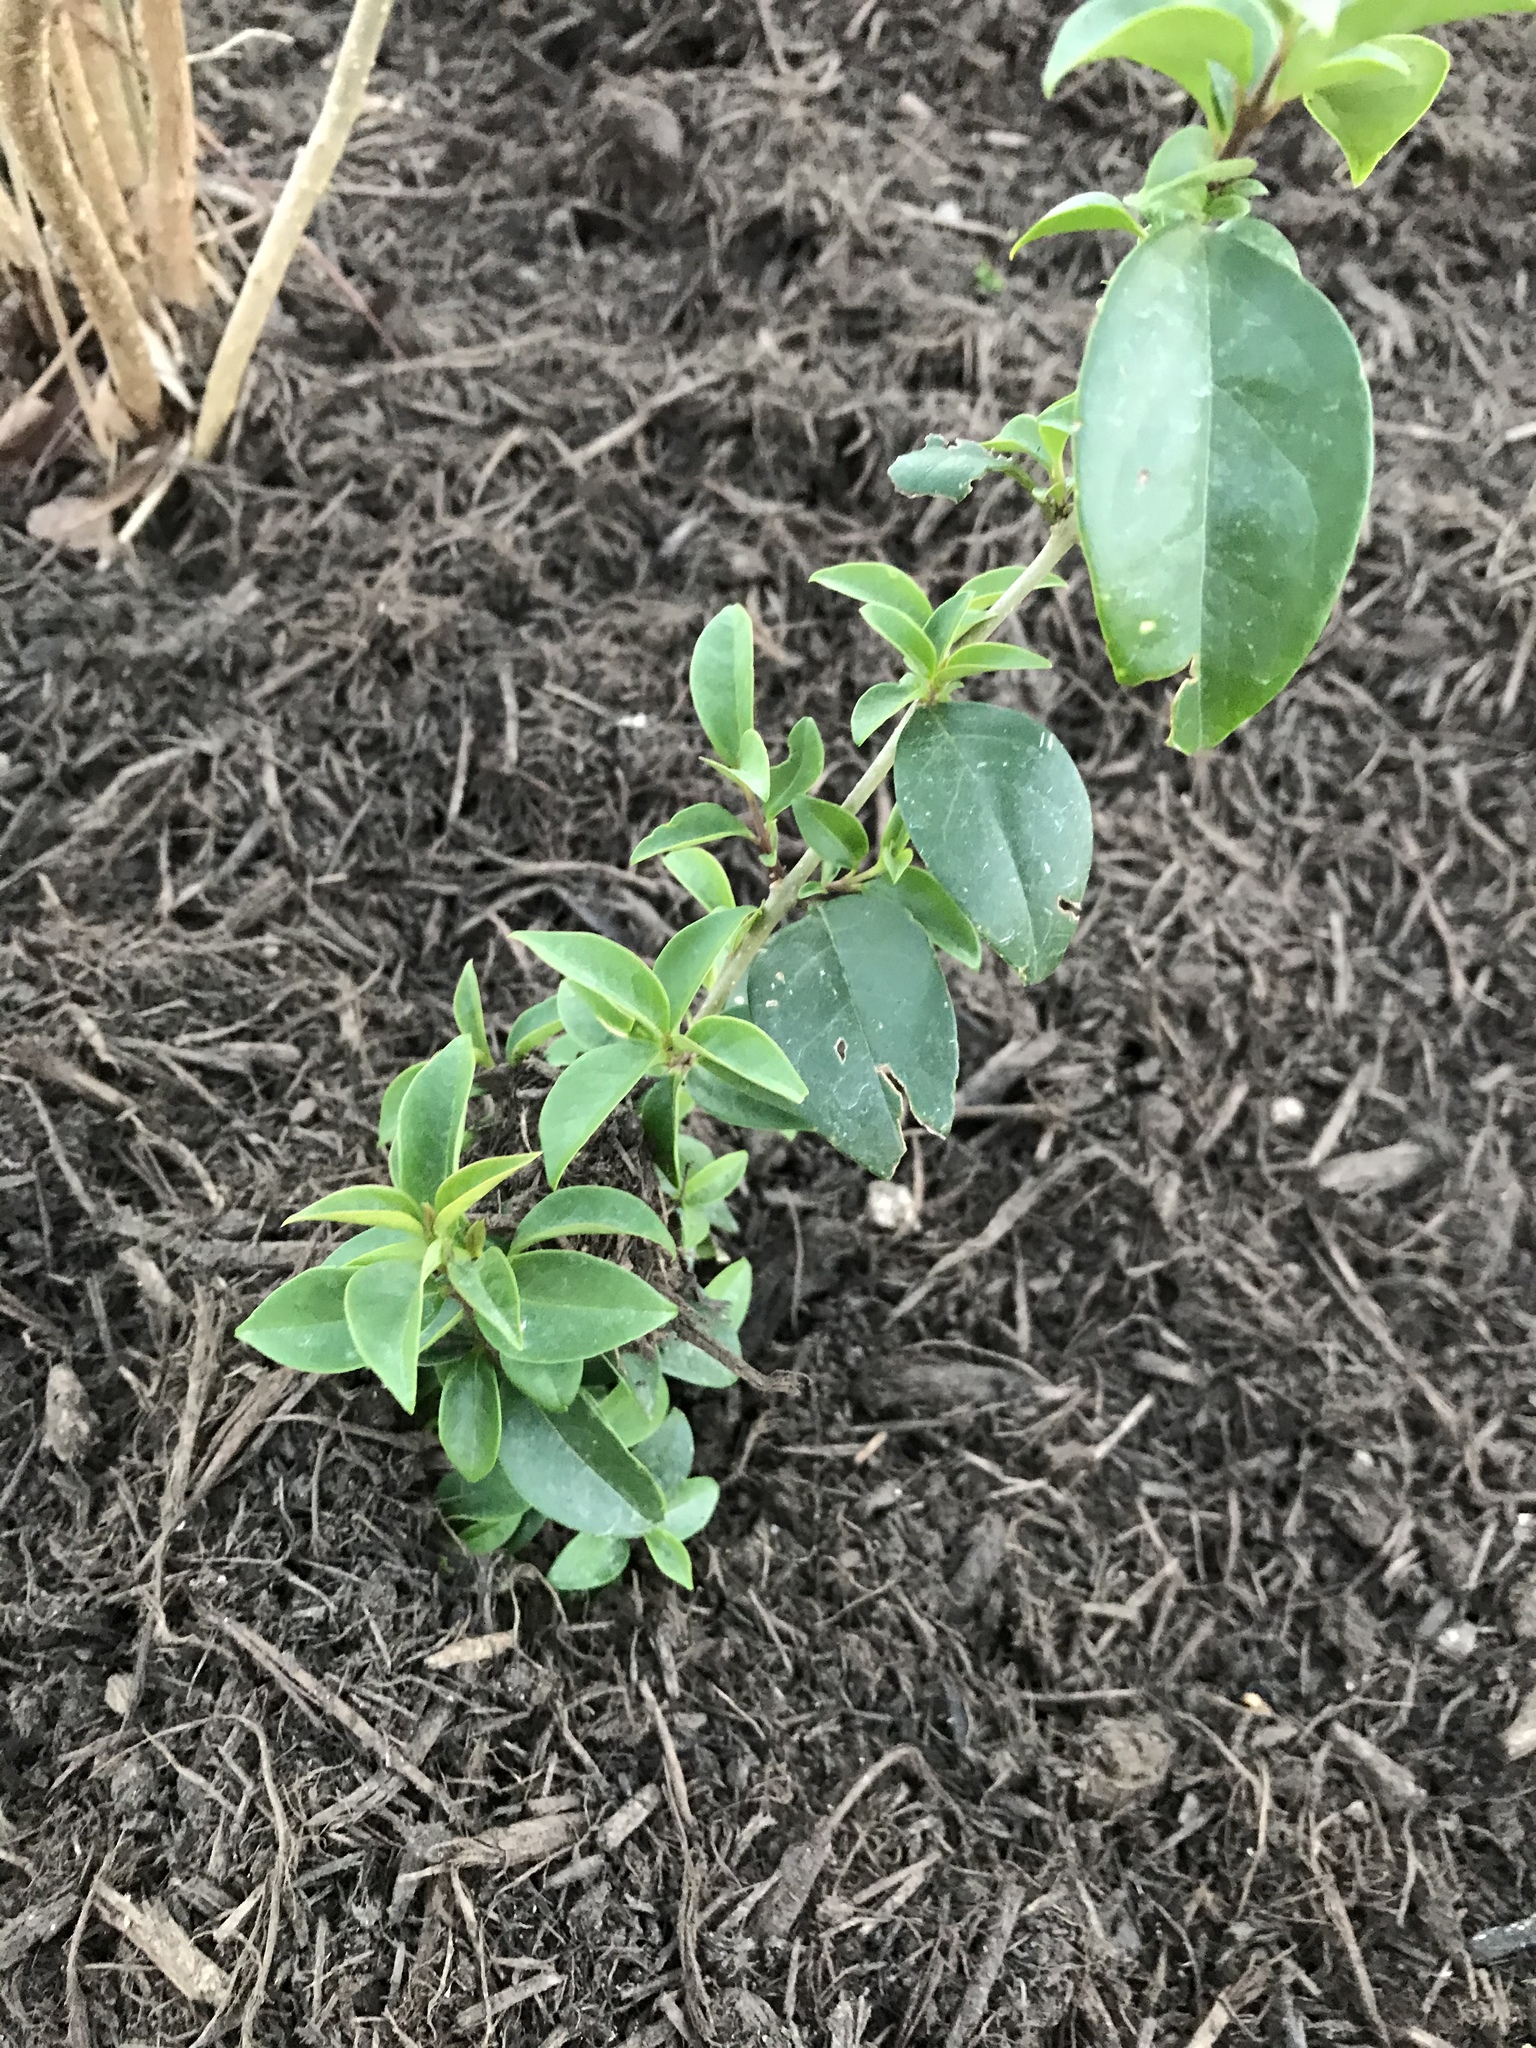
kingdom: Plantae
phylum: Tracheophyta
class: Magnoliopsida
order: Lamiales
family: Oleaceae
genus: Ligustrum
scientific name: Ligustrum lucidum
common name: Glossy privet
